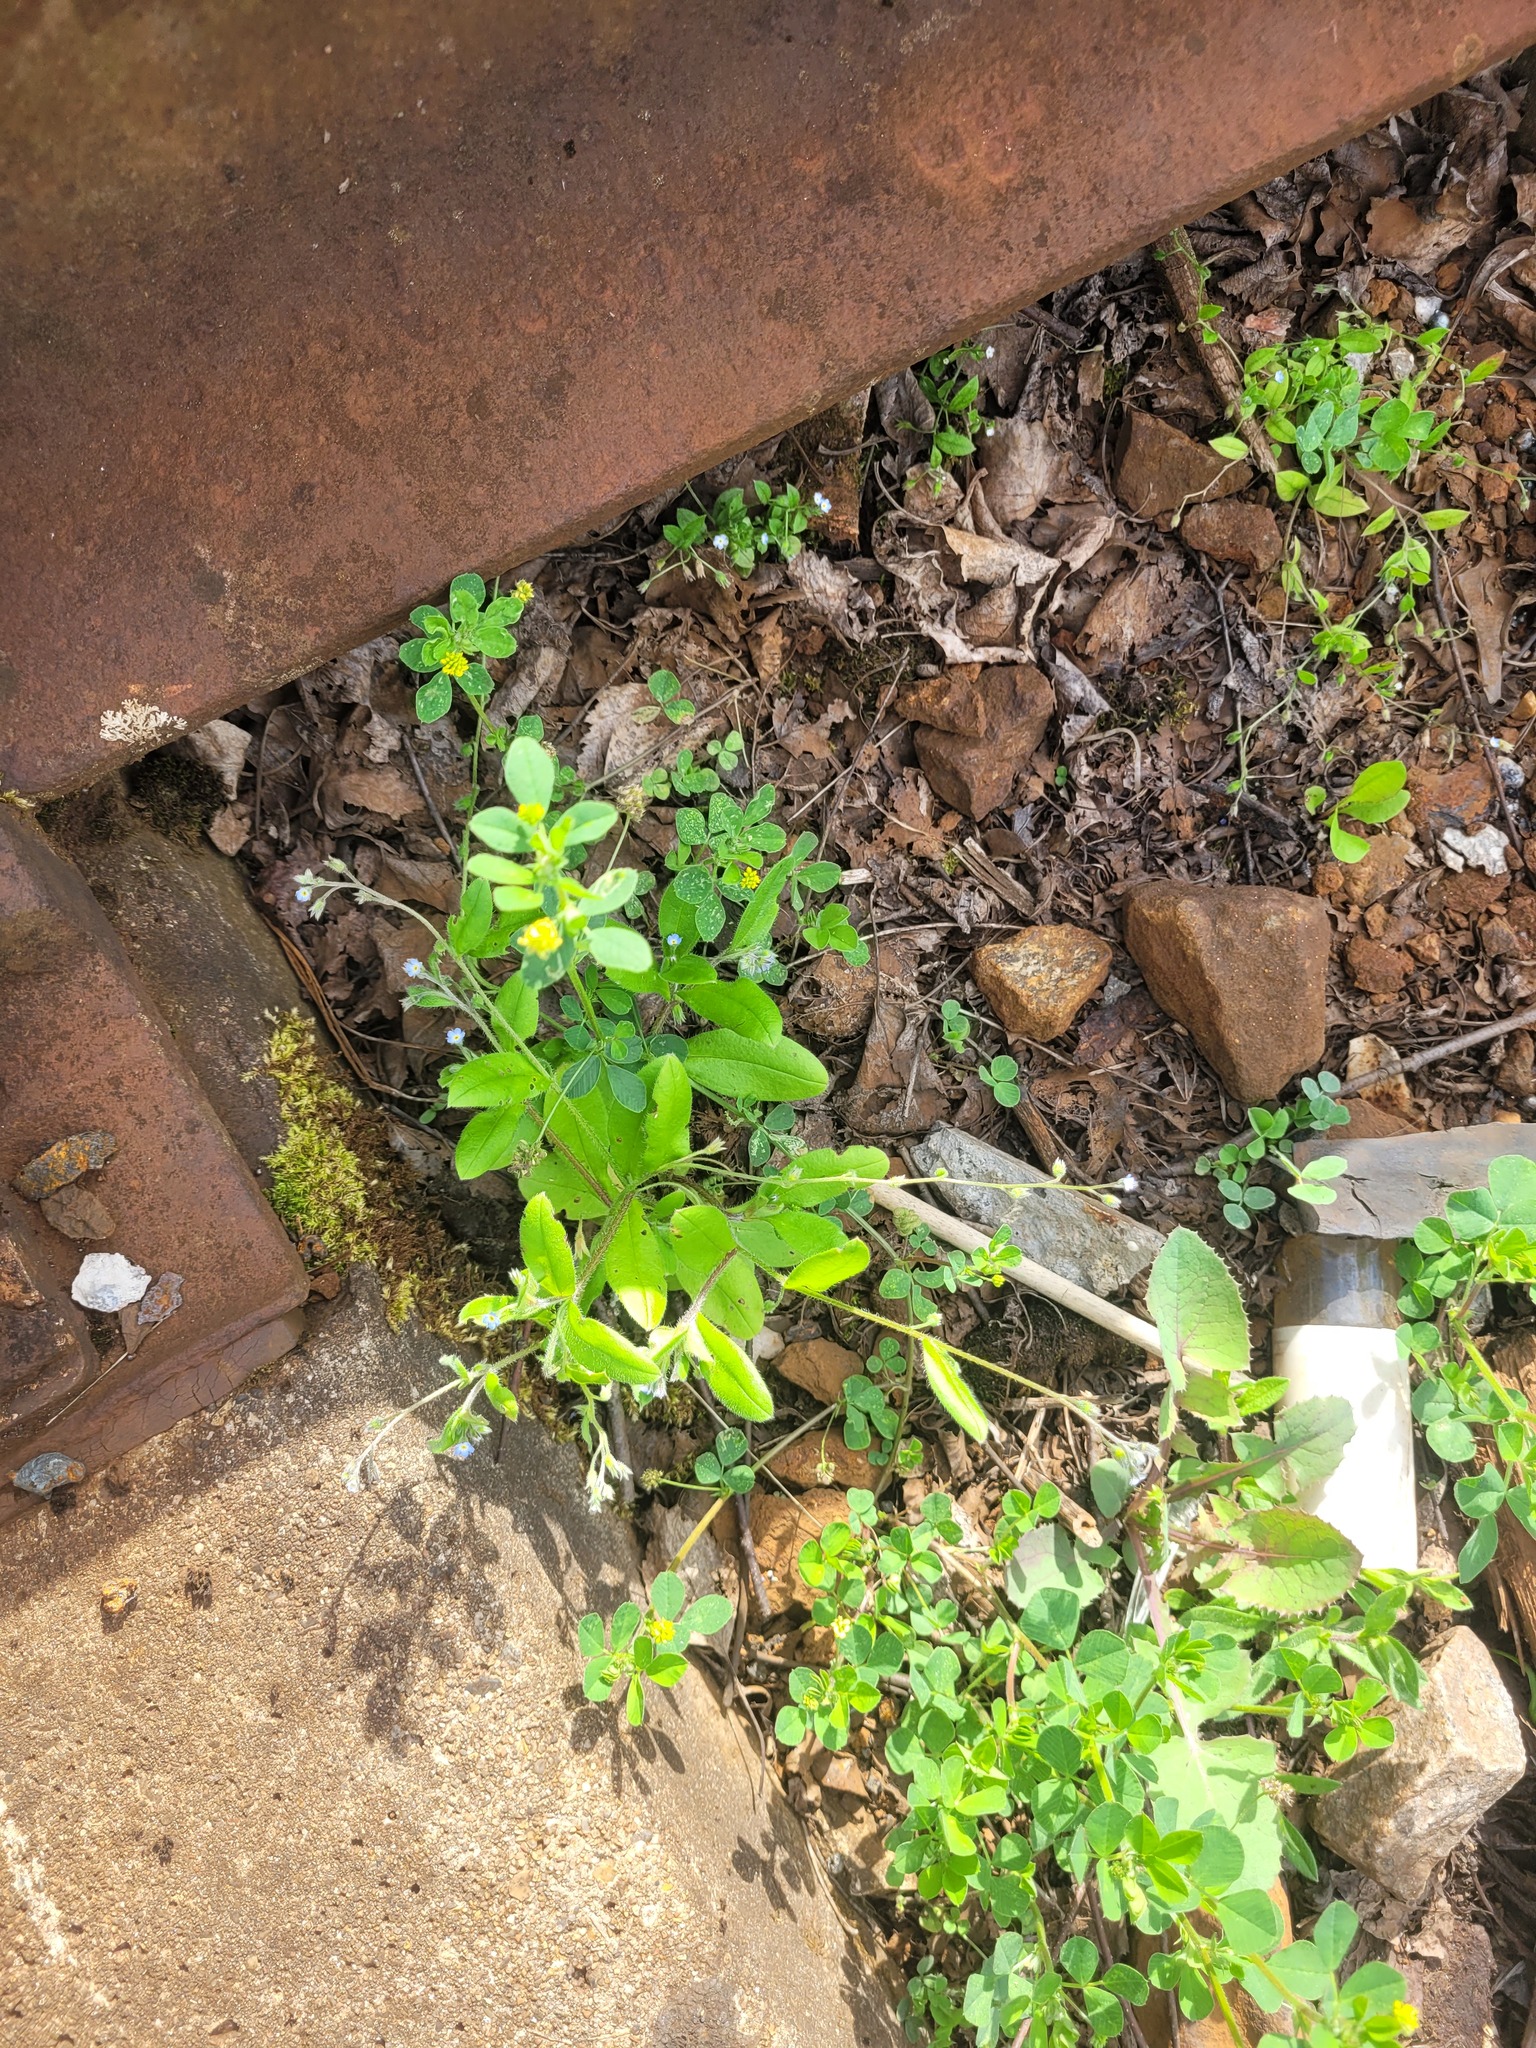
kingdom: Plantae
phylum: Tracheophyta
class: Magnoliopsida
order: Boraginales
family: Boraginaceae
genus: Myosotis
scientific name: Myosotis arvensis
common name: Field forget-me-not
